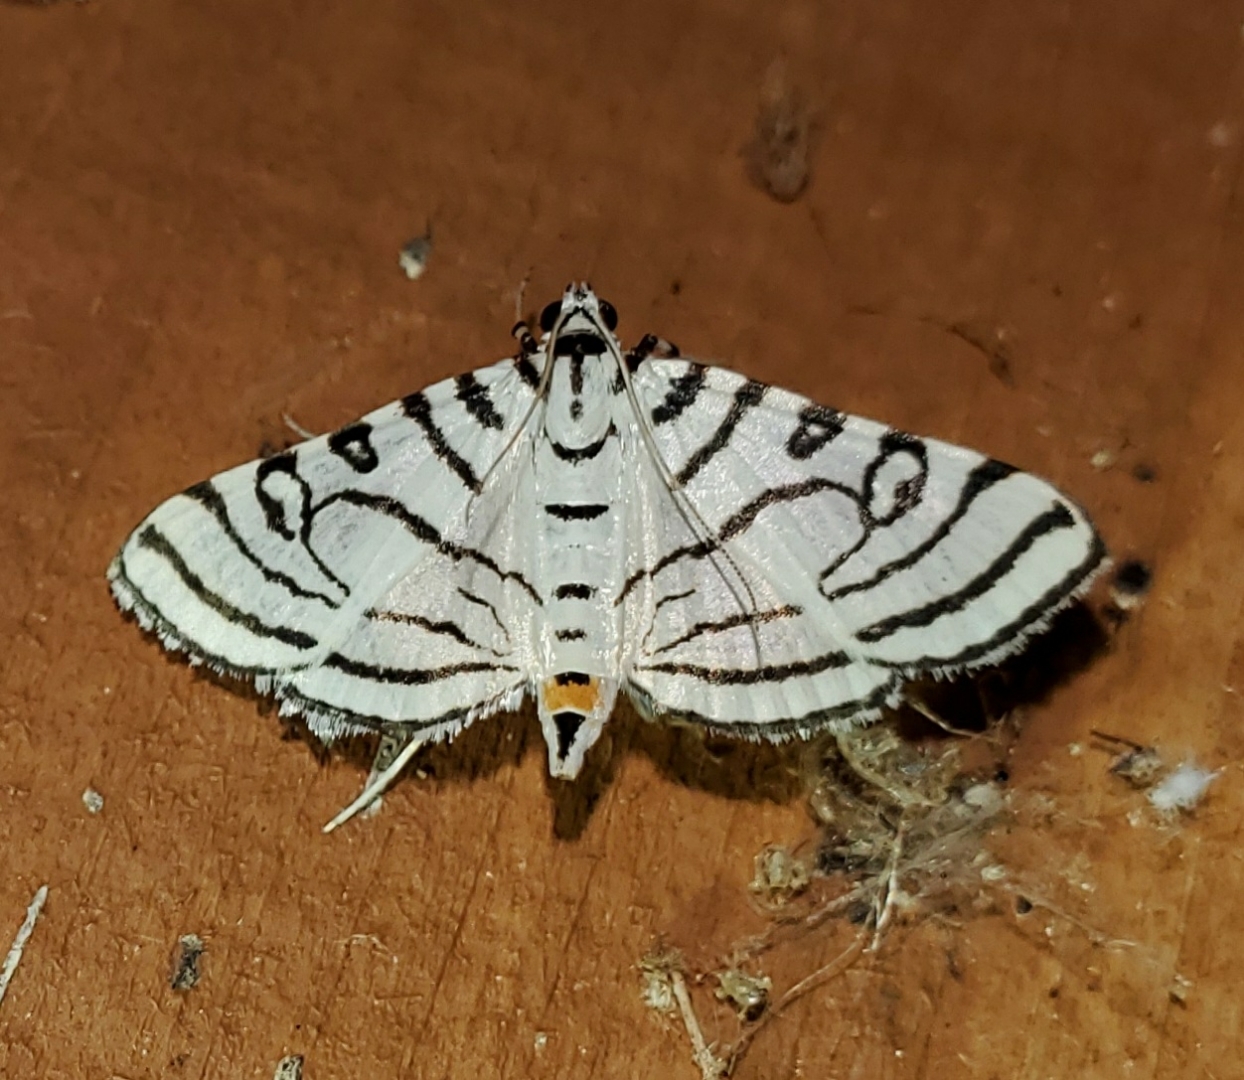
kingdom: Animalia
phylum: Arthropoda
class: Insecta
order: Lepidoptera
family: Crambidae
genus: Conchylodes
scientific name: Conchylodes concinnalis
